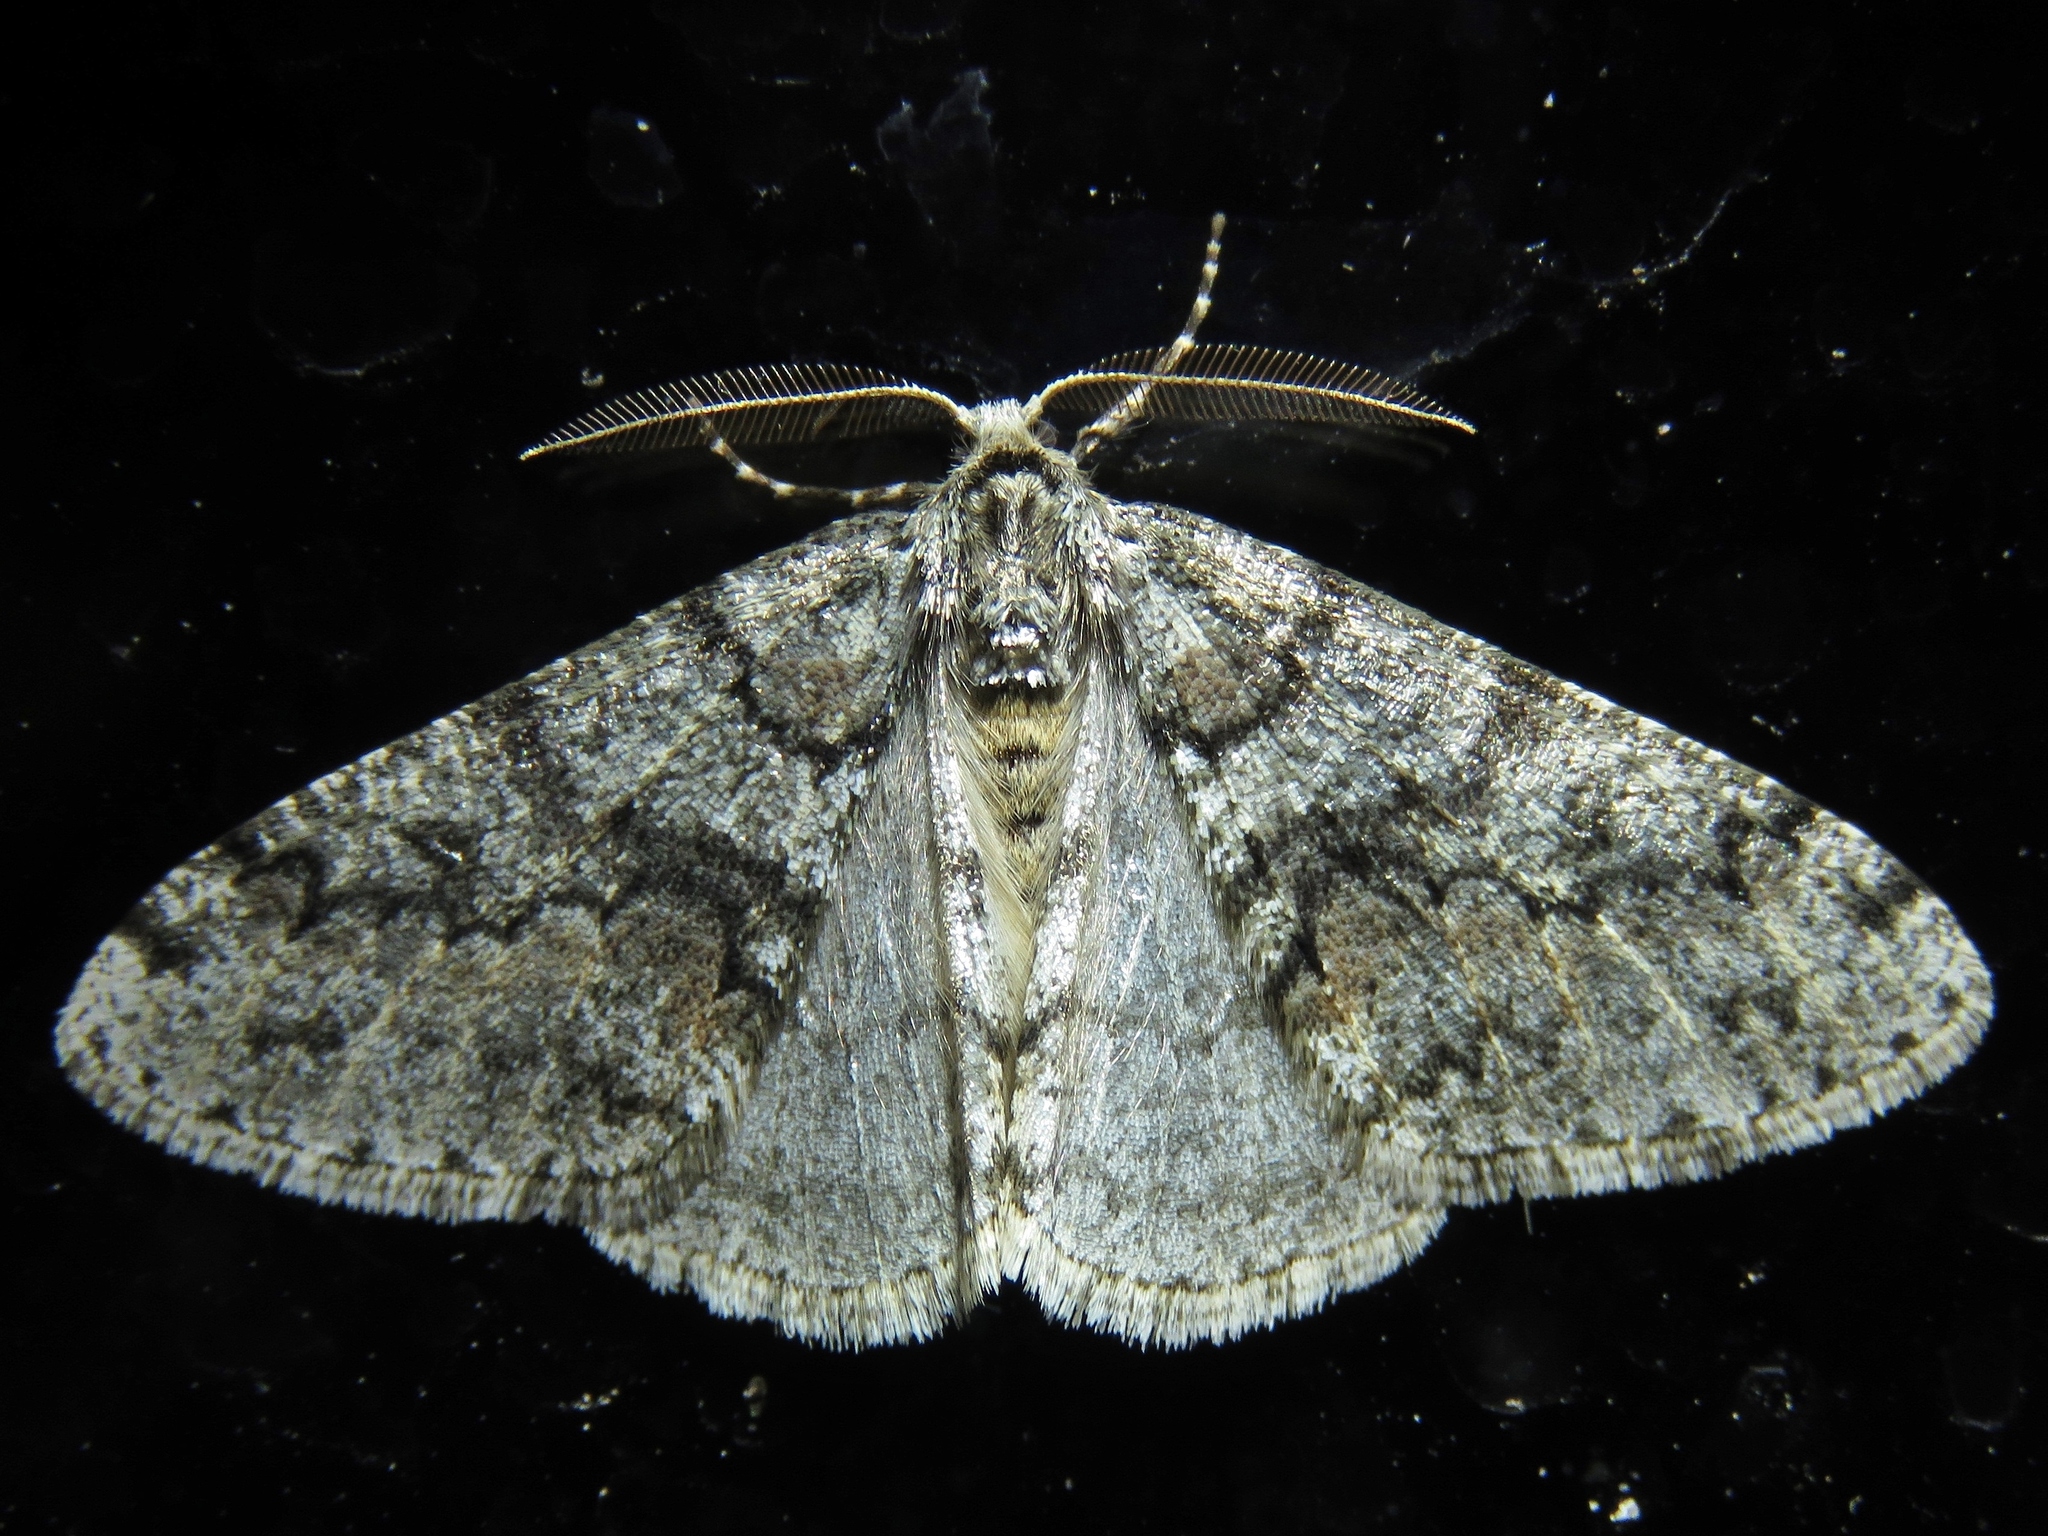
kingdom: Animalia
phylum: Arthropoda
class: Insecta
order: Lepidoptera
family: Geometridae
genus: Phigalia
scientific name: Phigalia denticulata
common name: Toothed phigalia
